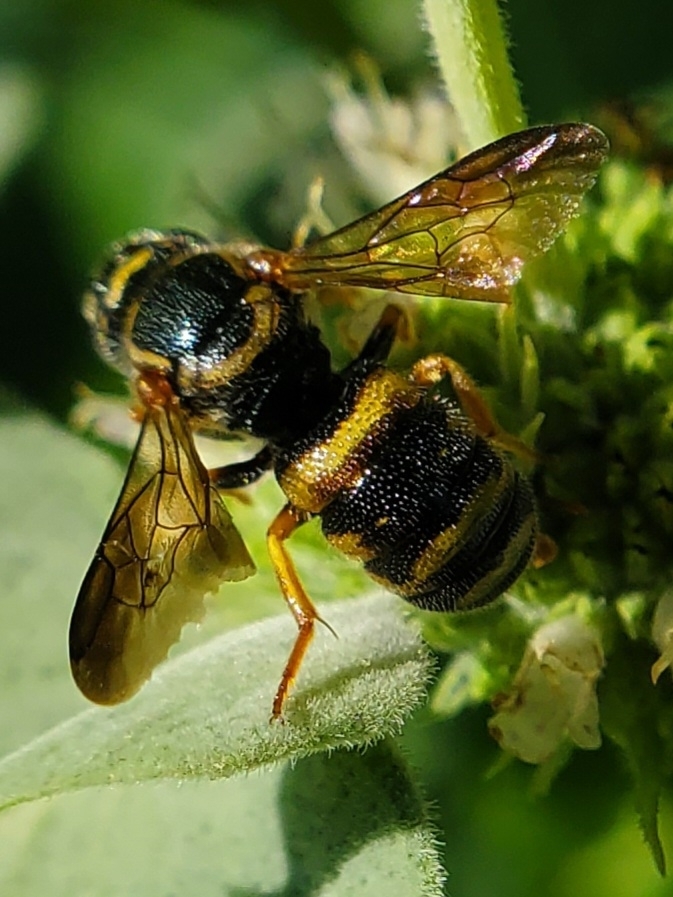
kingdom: Animalia
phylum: Arthropoda
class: Insecta
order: Hymenoptera
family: Megachilidae
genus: Stelis
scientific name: Stelis louisae
